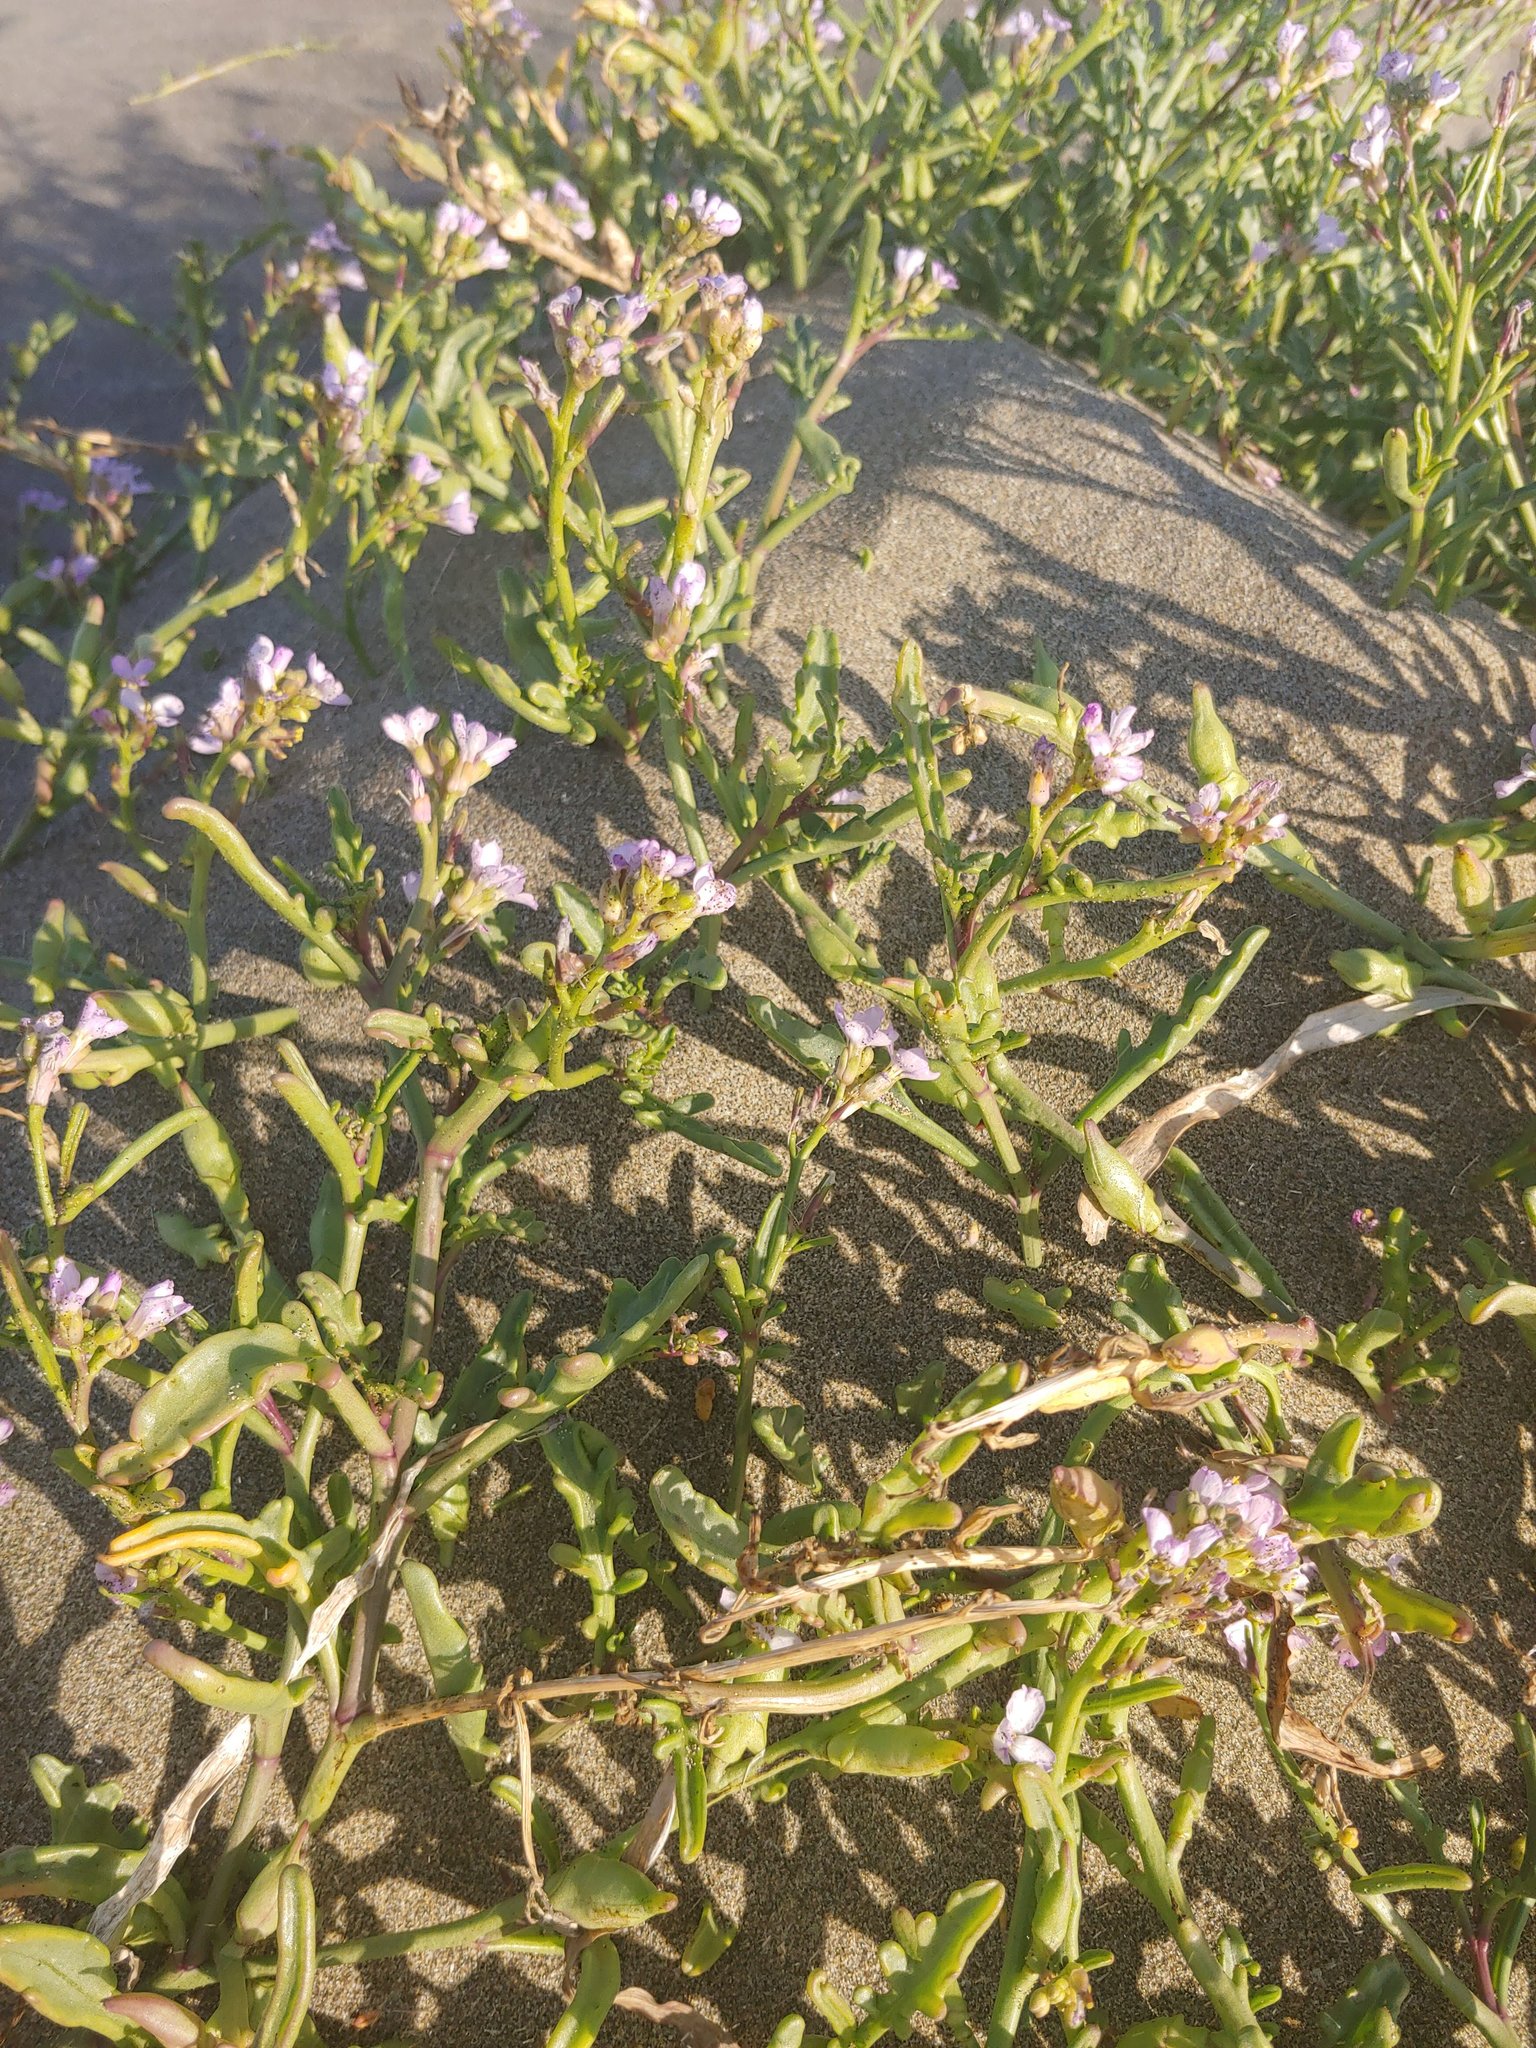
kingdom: Plantae
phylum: Tracheophyta
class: Magnoliopsida
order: Brassicales
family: Brassicaceae
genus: Cakile
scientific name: Cakile maritima
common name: Sea rocket
